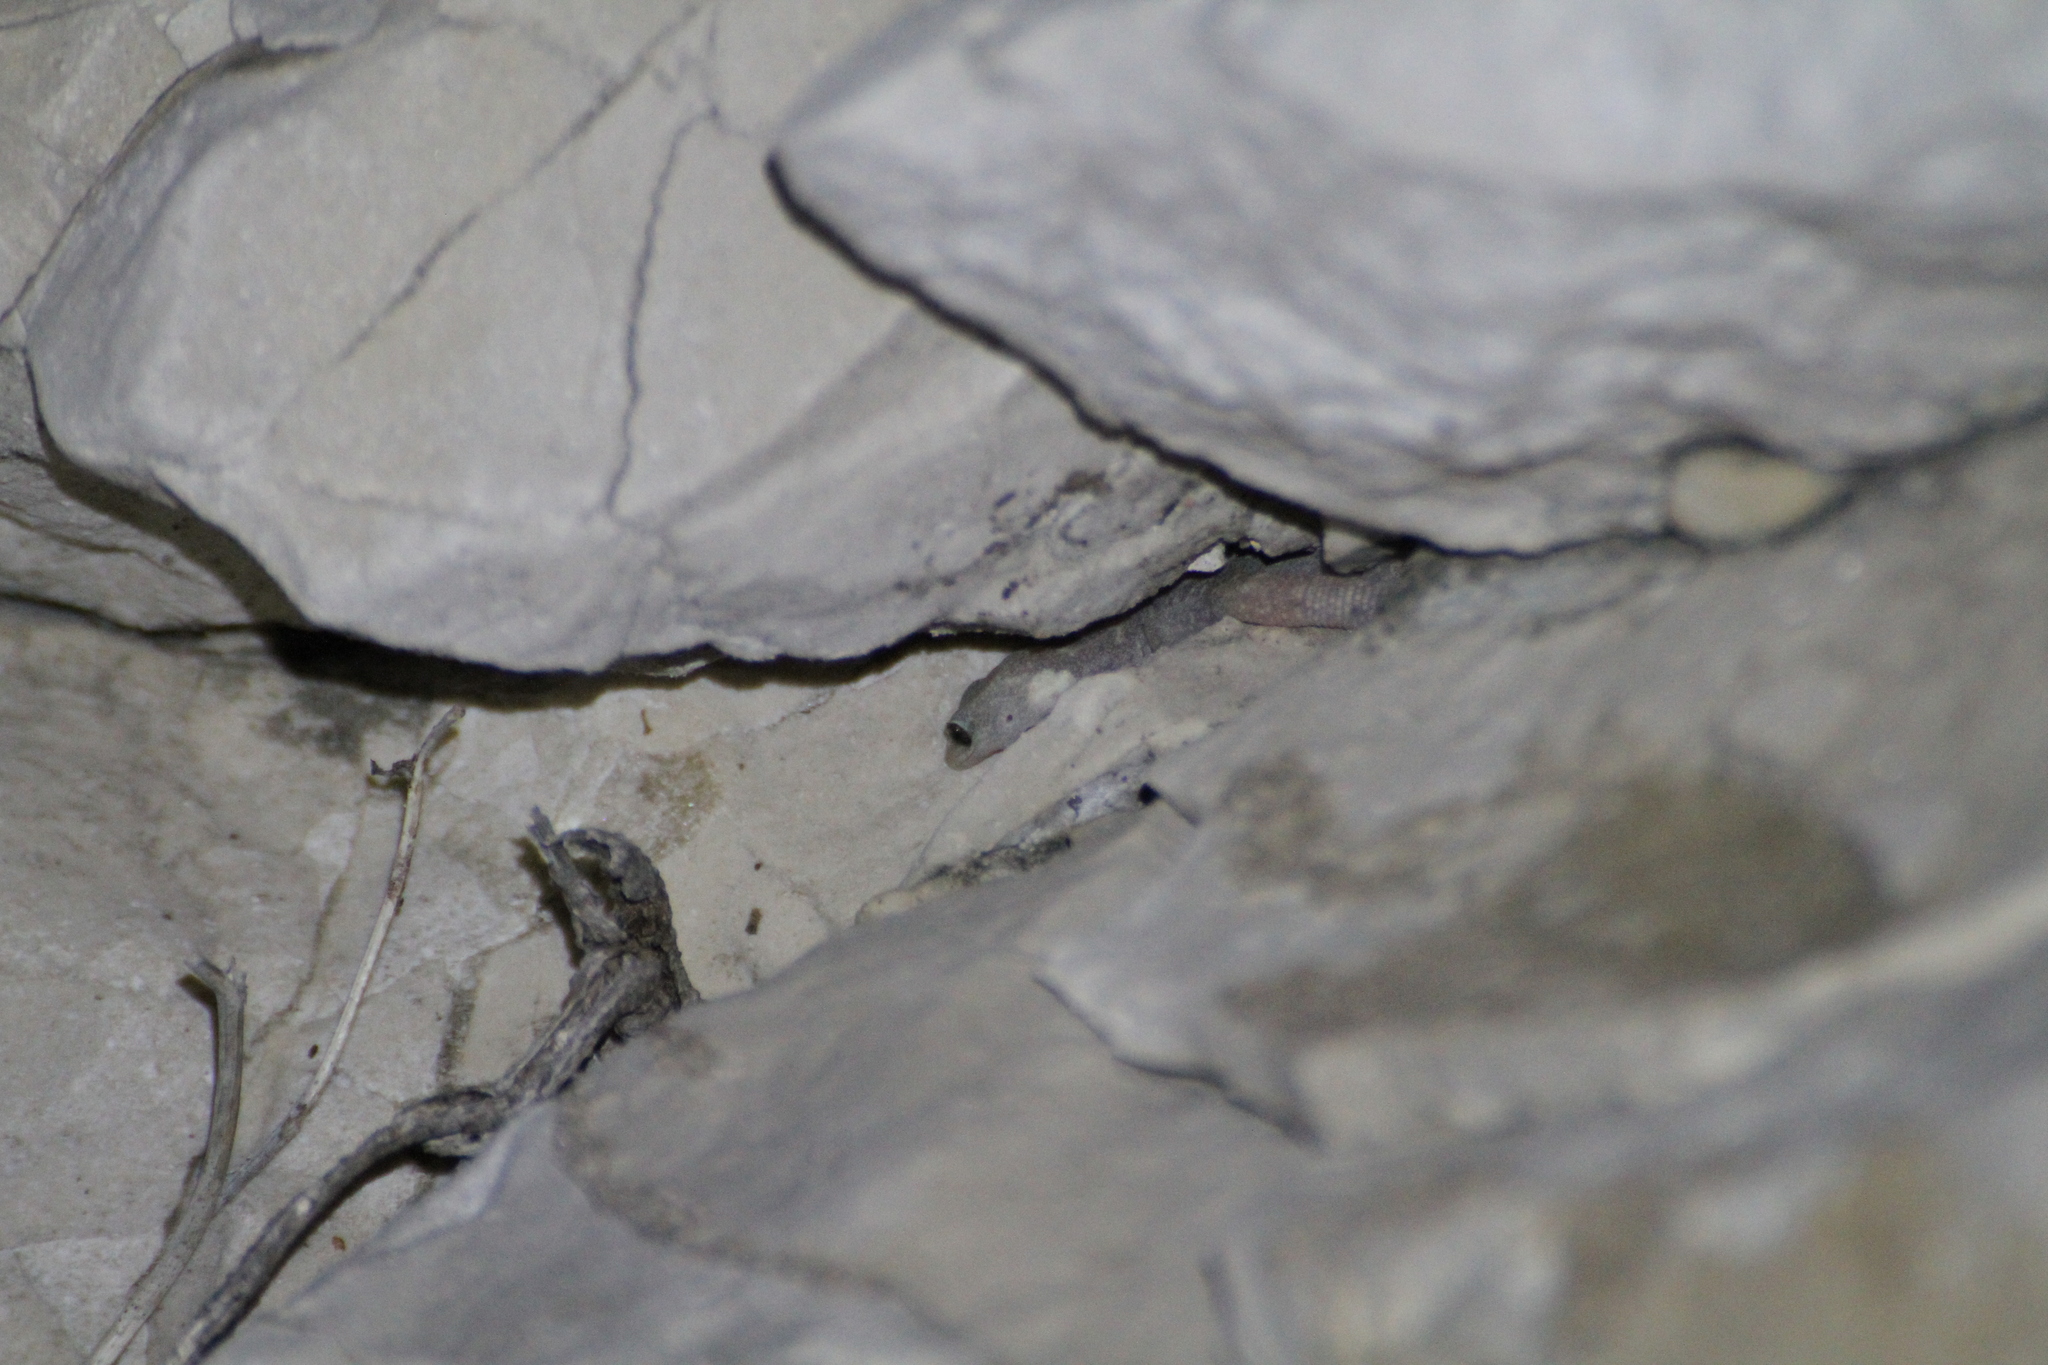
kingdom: Animalia
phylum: Chordata
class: Squamata
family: Sphaerodactylidae
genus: Euleptes
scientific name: Euleptes europaea
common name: English common name not available
